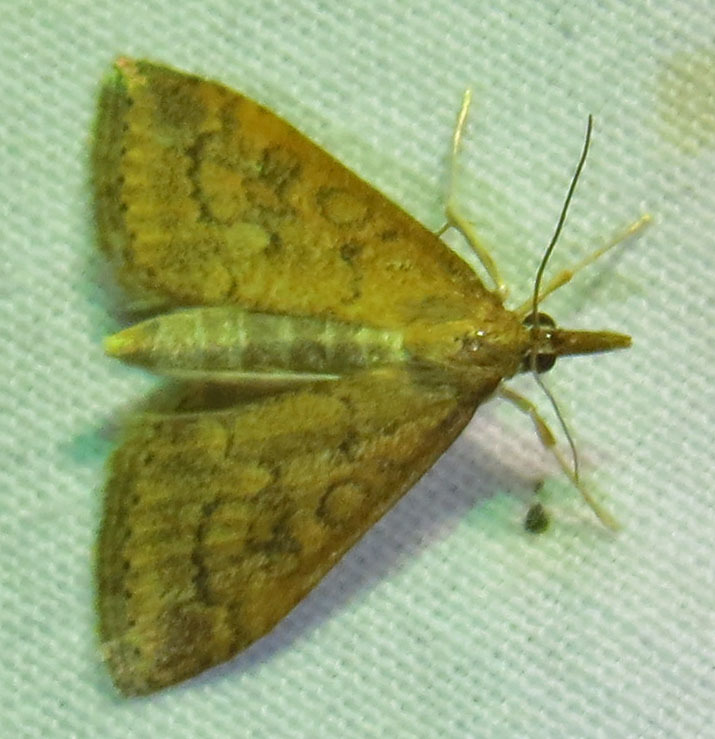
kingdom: Animalia
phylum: Arthropoda
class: Insecta
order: Lepidoptera
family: Crambidae
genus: Udea
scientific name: Udea rubigalis
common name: Celery leaftier moth
